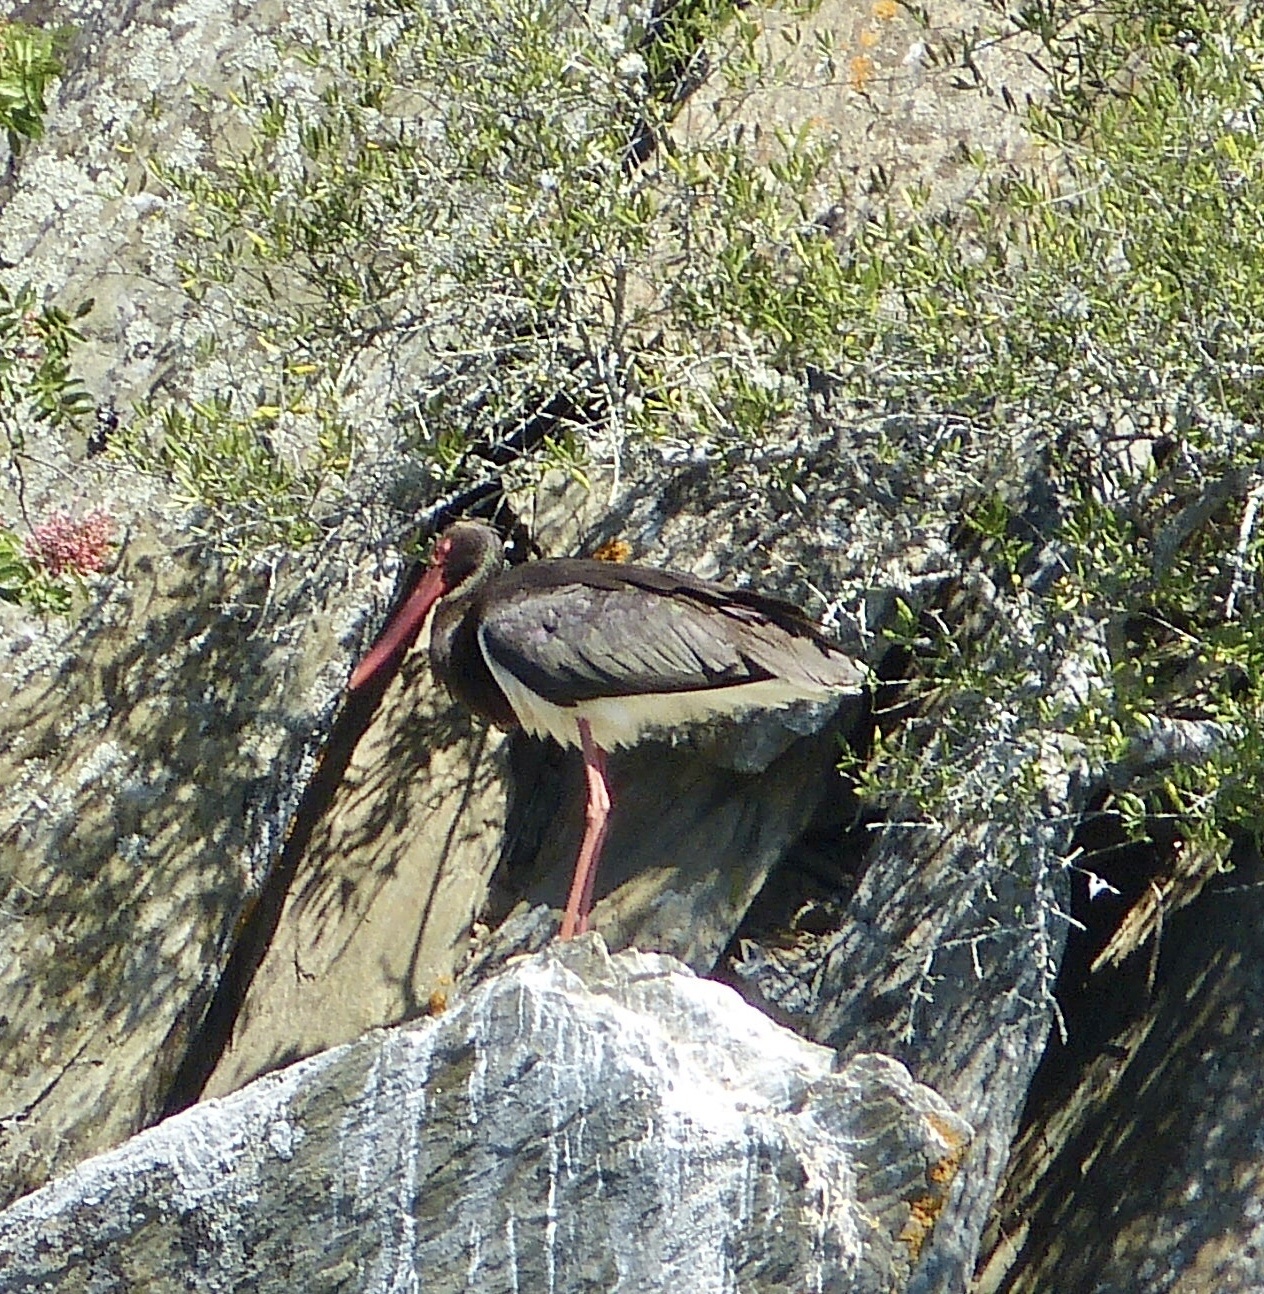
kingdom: Animalia
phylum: Chordata
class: Aves
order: Ciconiiformes
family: Ciconiidae
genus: Ciconia
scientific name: Ciconia nigra
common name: Black stork
